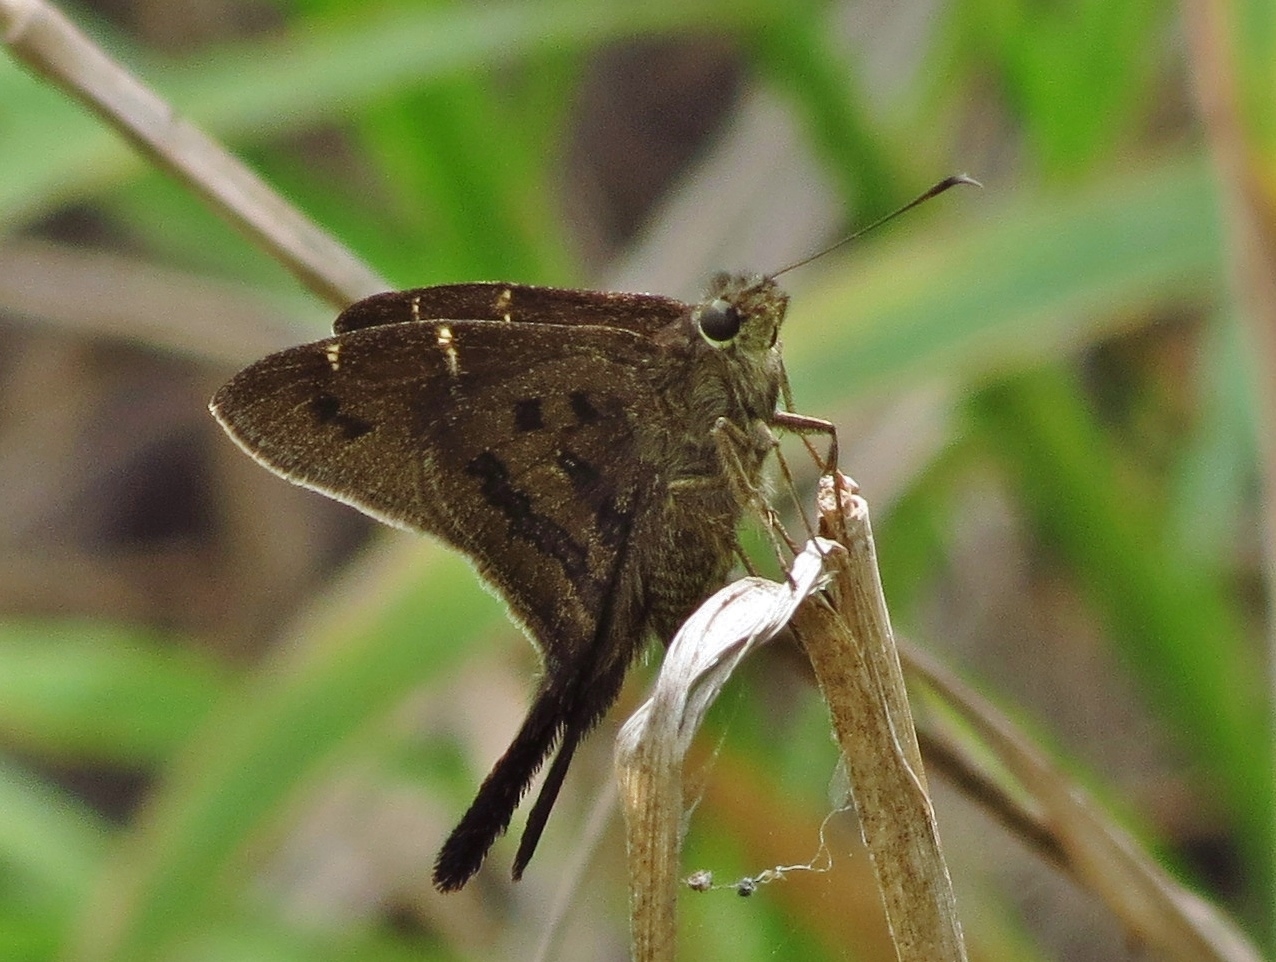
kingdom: Animalia
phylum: Arthropoda
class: Insecta
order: Lepidoptera
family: Hesperiidae
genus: Urbanus
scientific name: Urbanus procne
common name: Brown longtail
